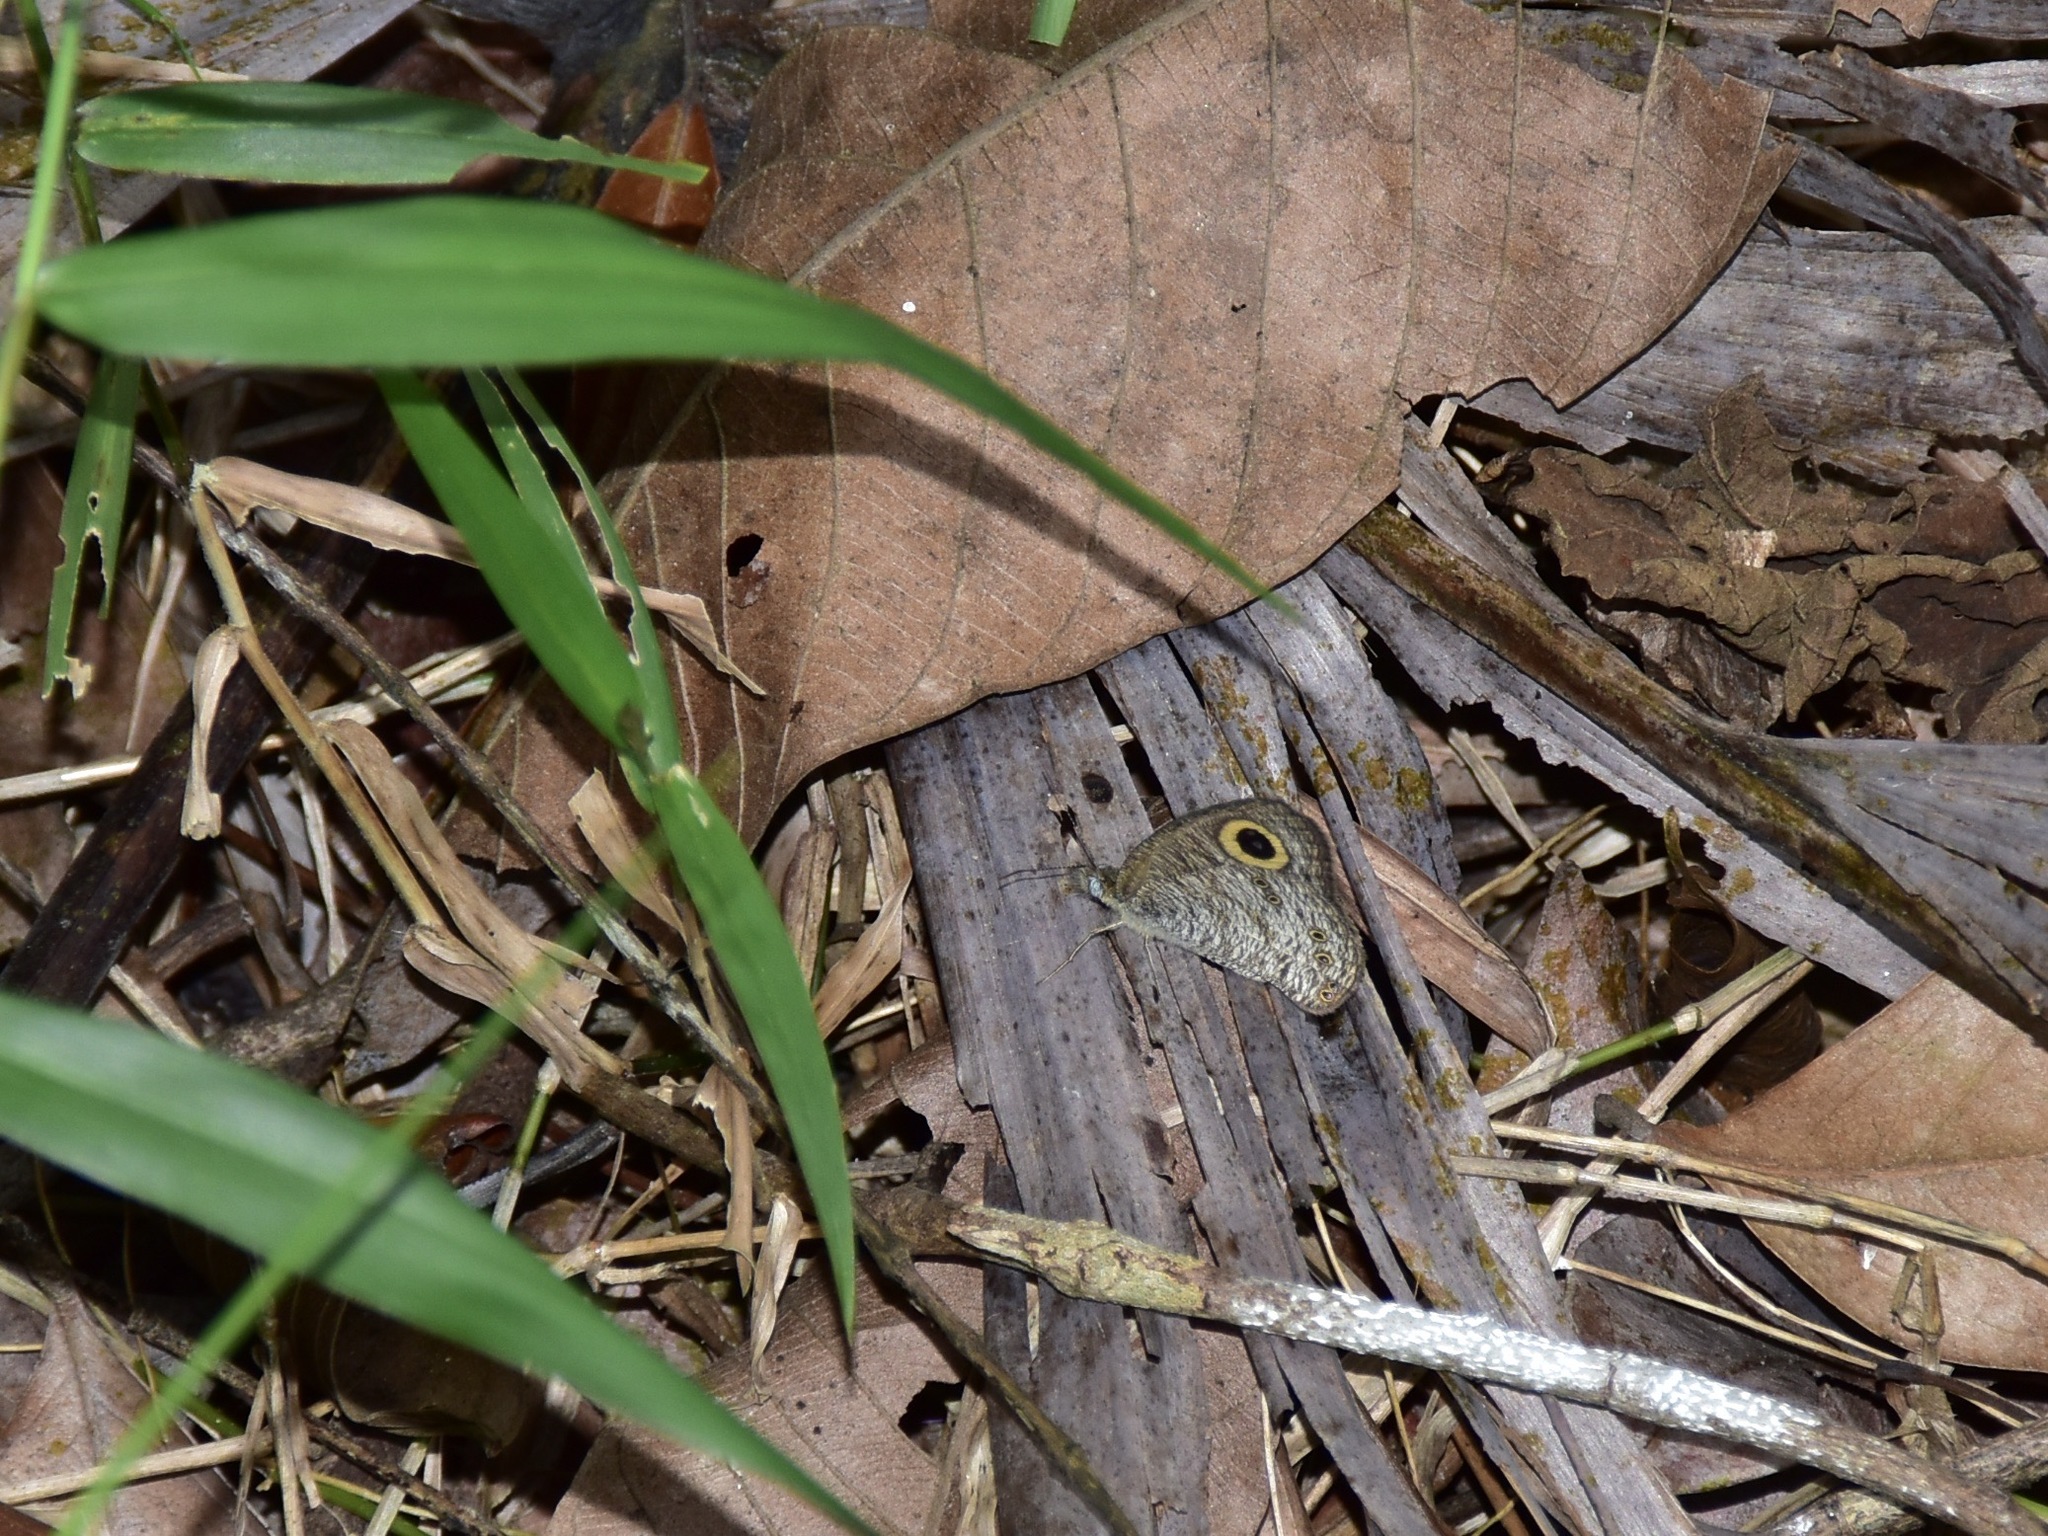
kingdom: Animalia
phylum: Arthropoda
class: Insecta
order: Lepidoptera
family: Nymphalidae
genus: Ypthima
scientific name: Ypthima baldus
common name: Common five-ring
